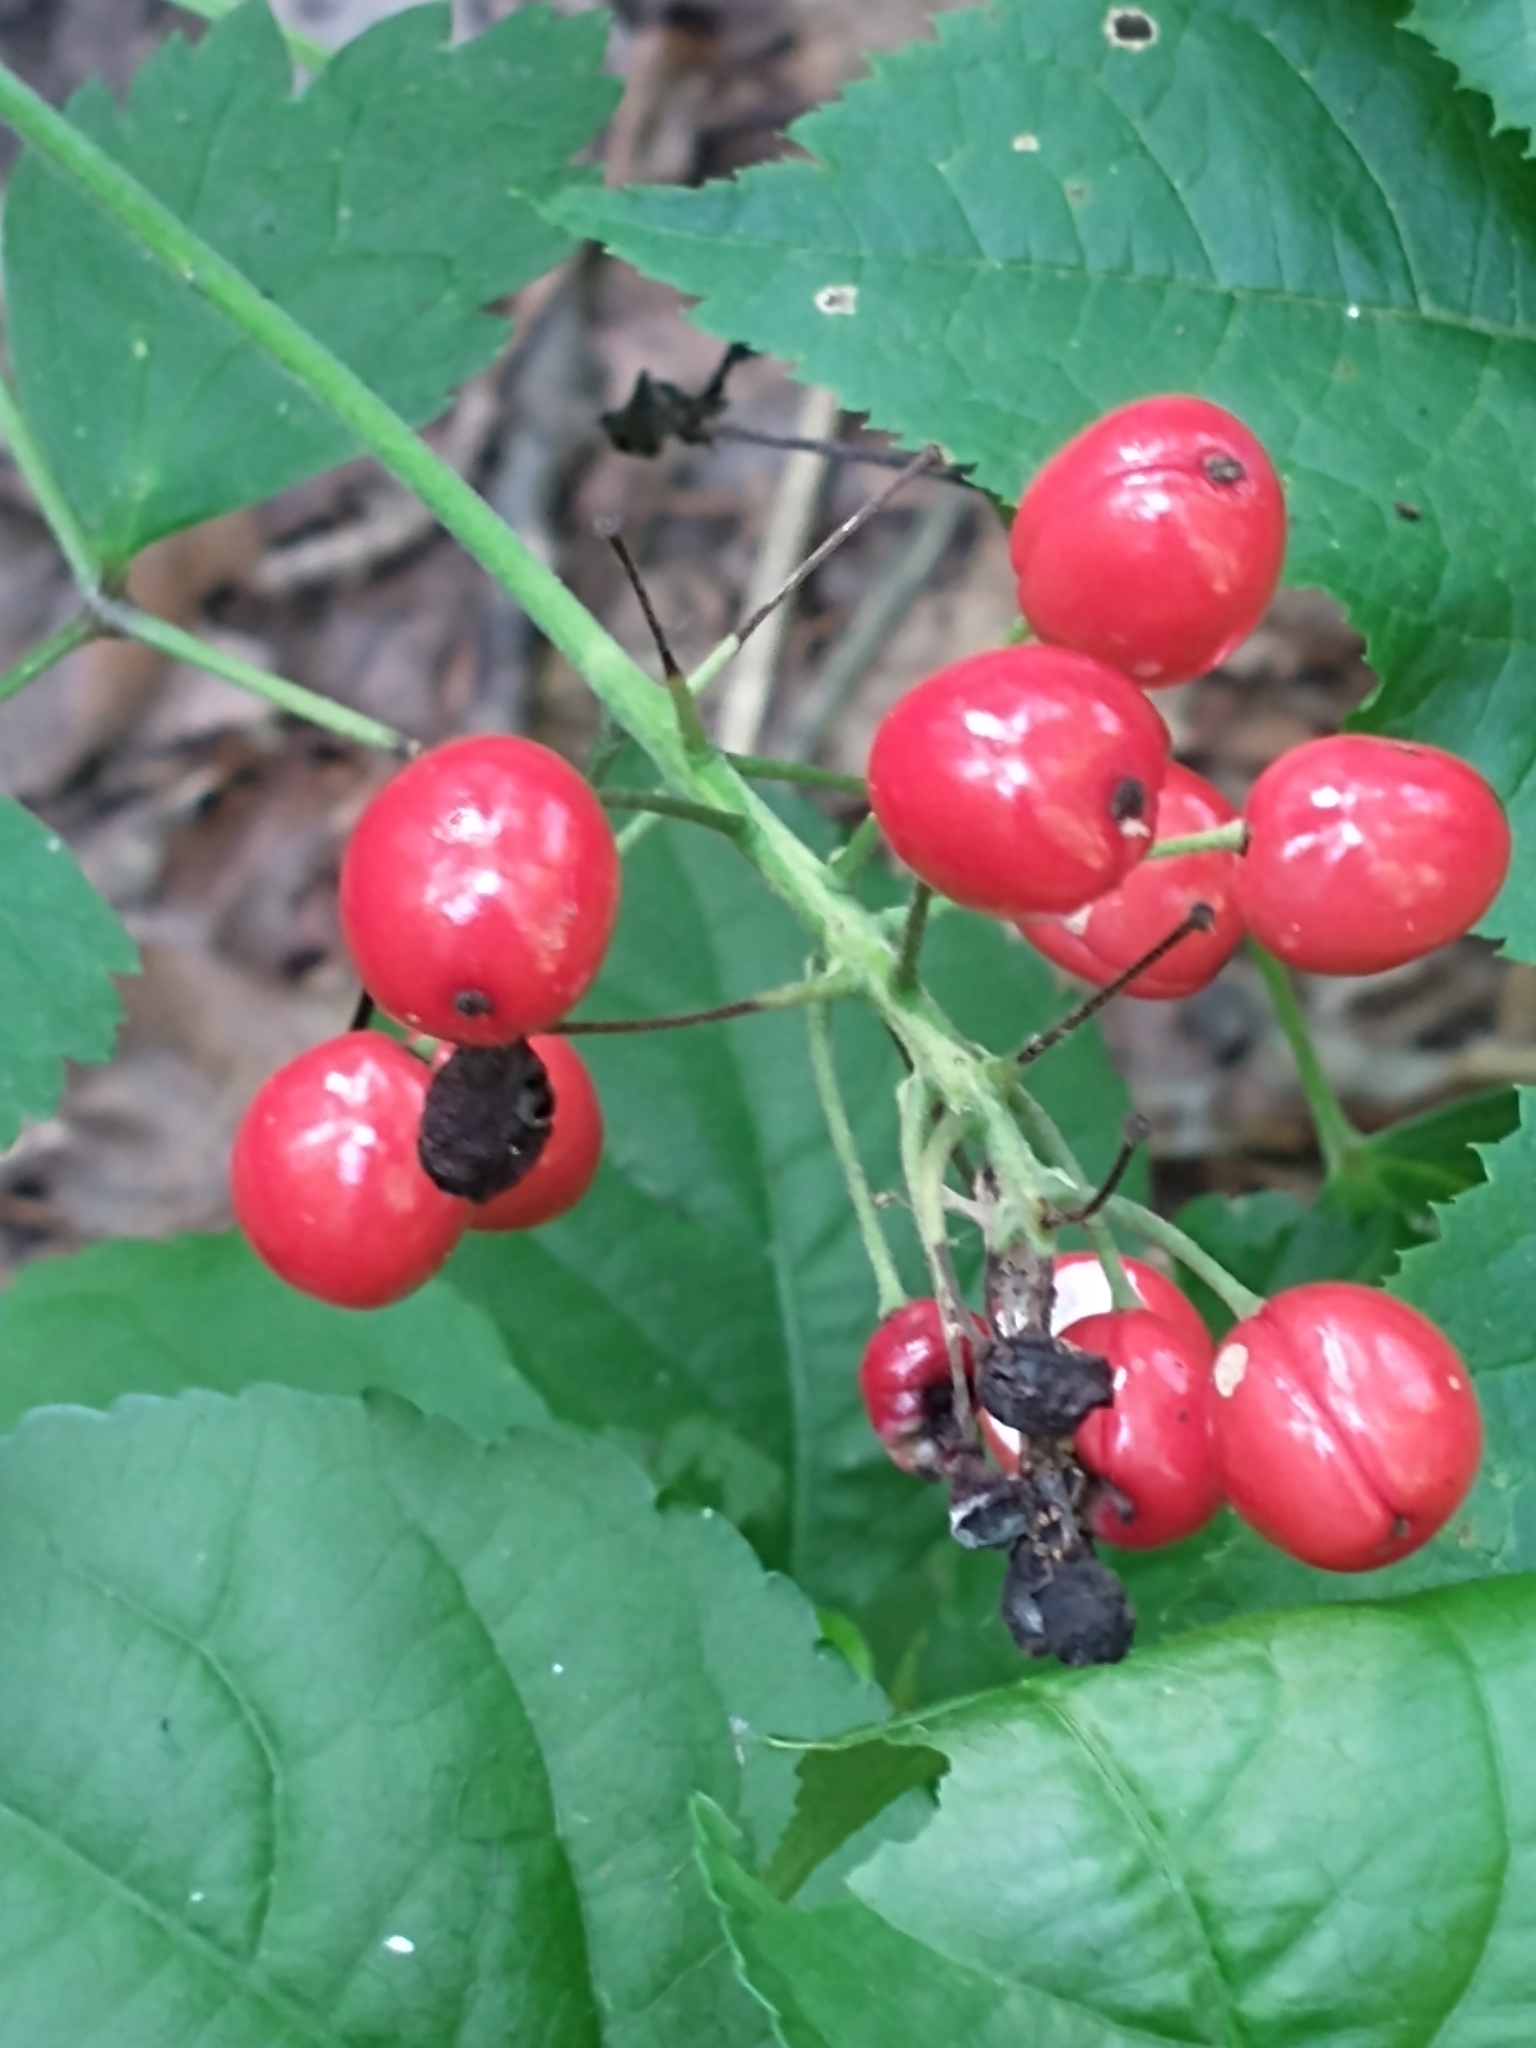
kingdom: Plantae
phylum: Tracheophyta
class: Magnoliopsida
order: Ranunculales
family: Ranunculaceae
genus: Actaea
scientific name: Actaea rubra
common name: Red baneberry
